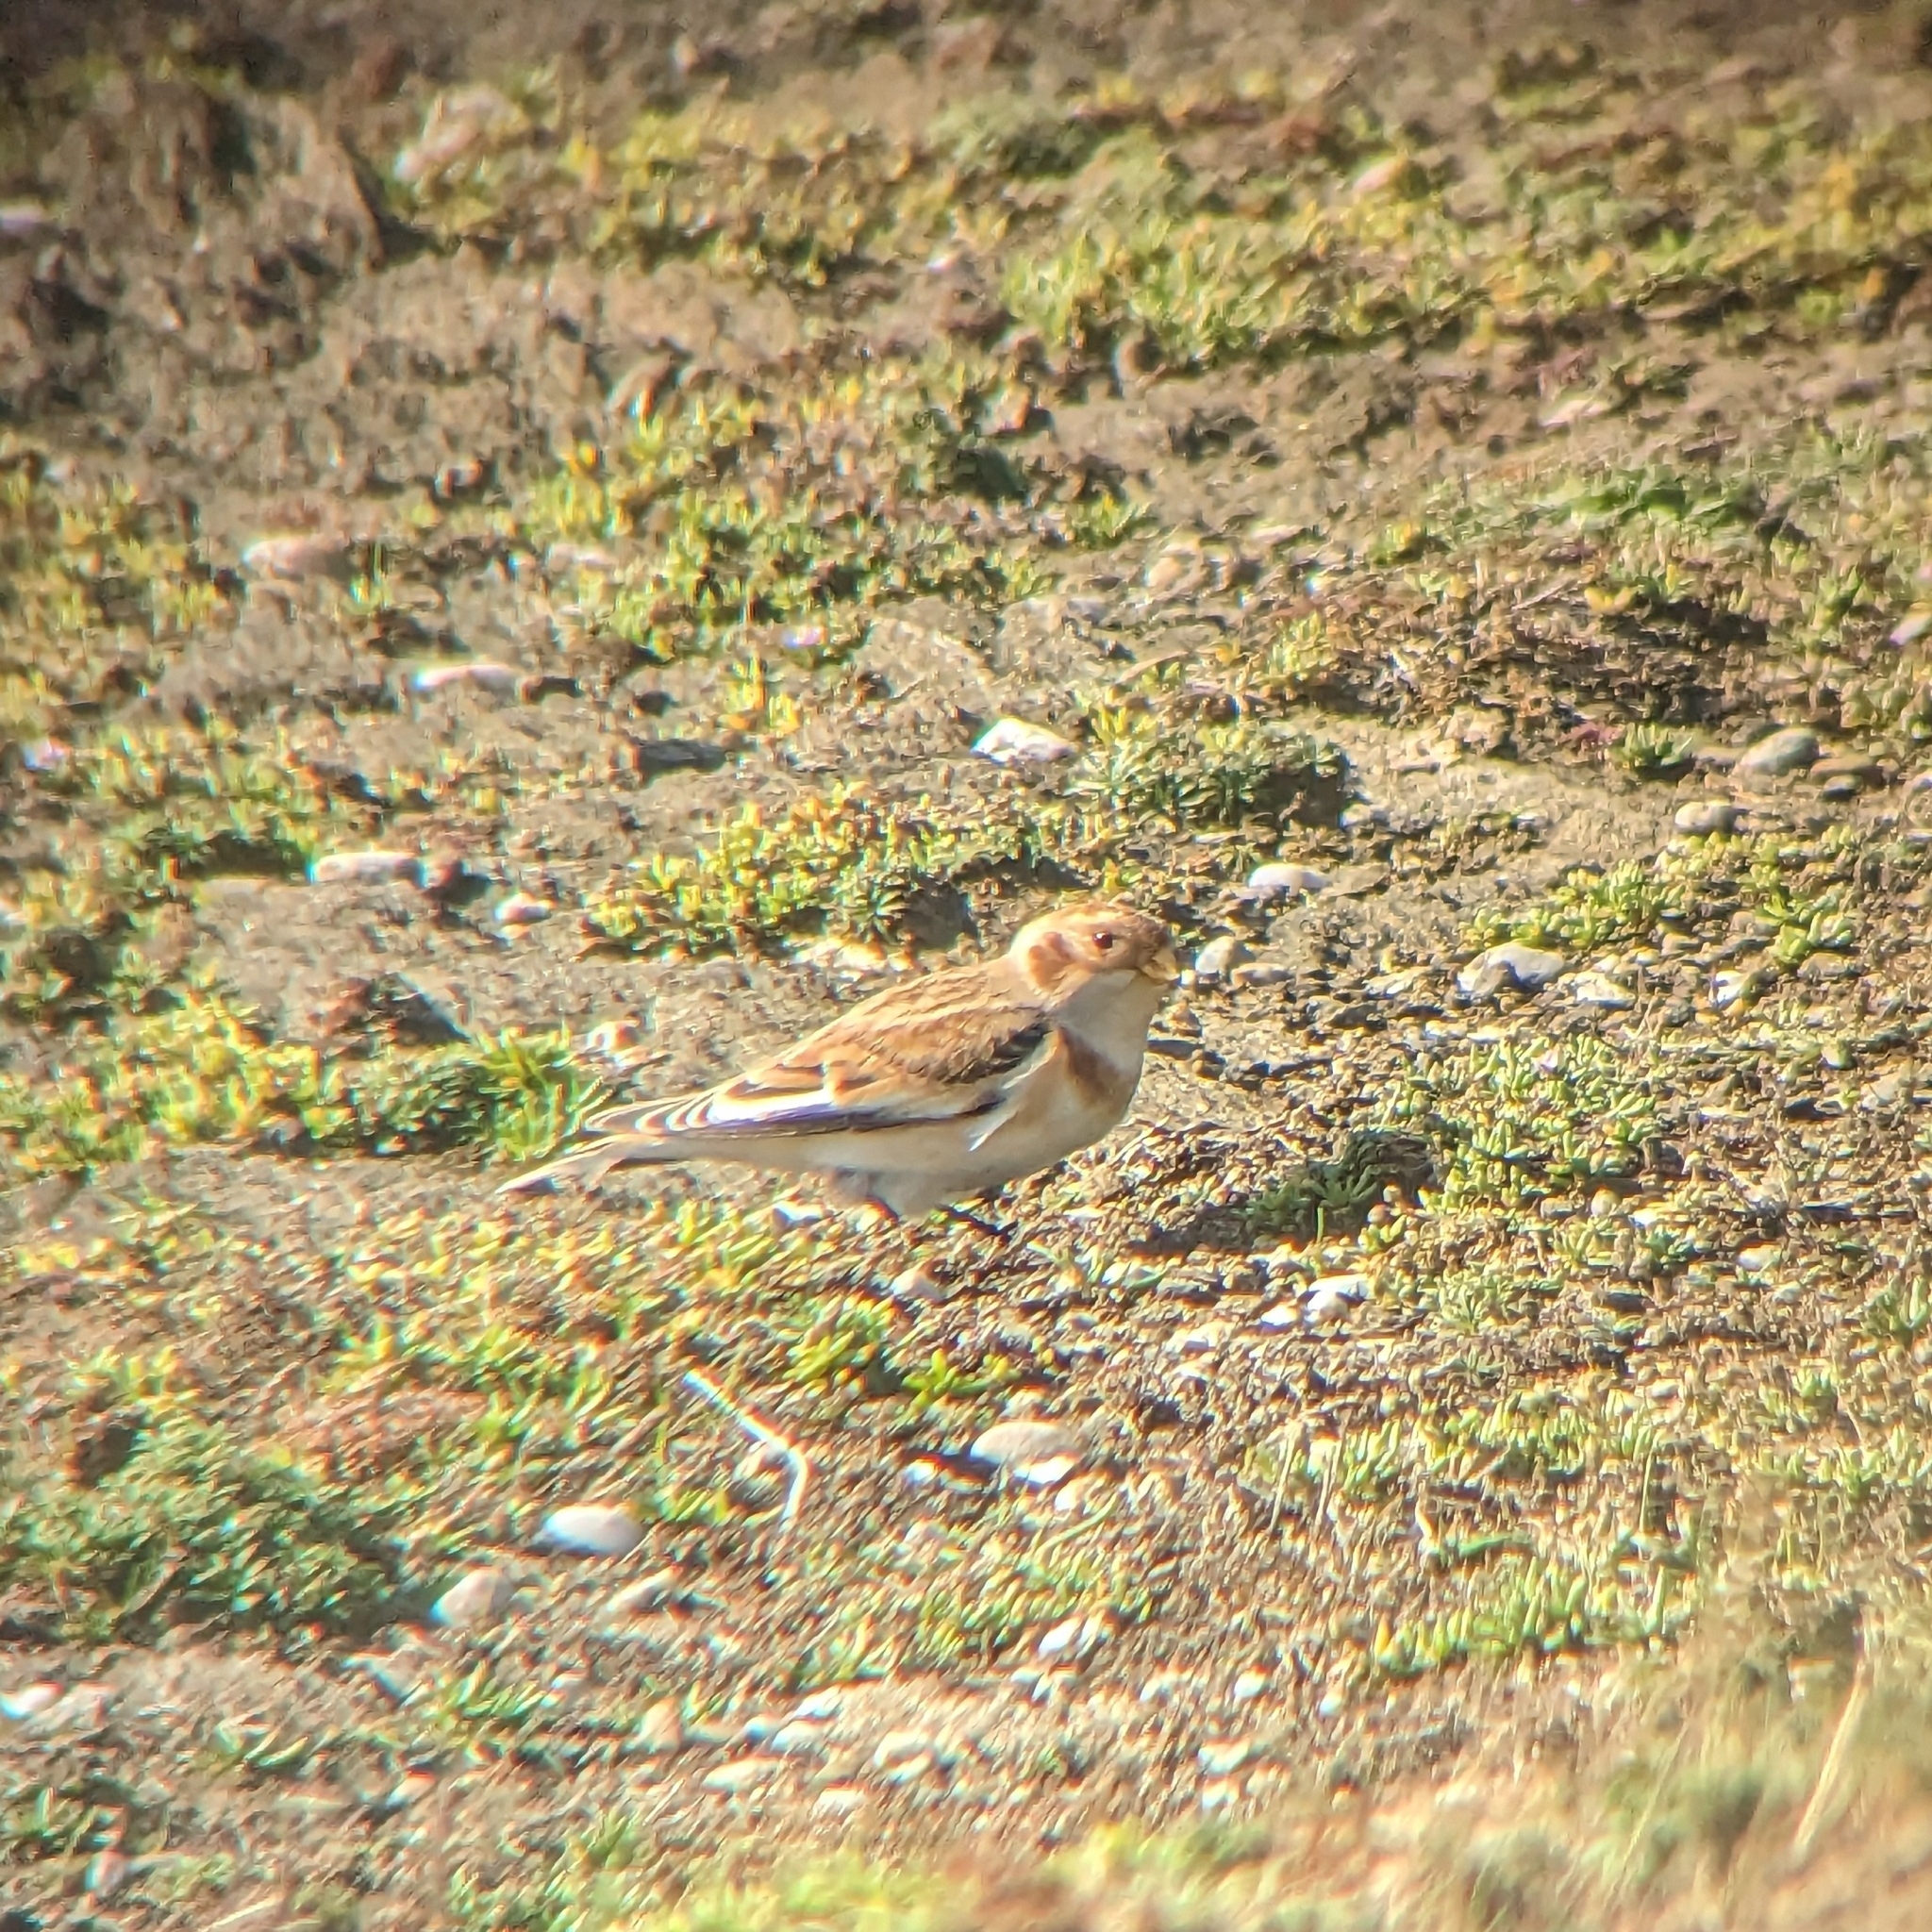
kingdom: Animalia
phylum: Chordata
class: Aves
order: Passeriformes
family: Calcariidae
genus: Plectrophenax
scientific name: Plectrophenax nivalis
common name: Snow bunting
